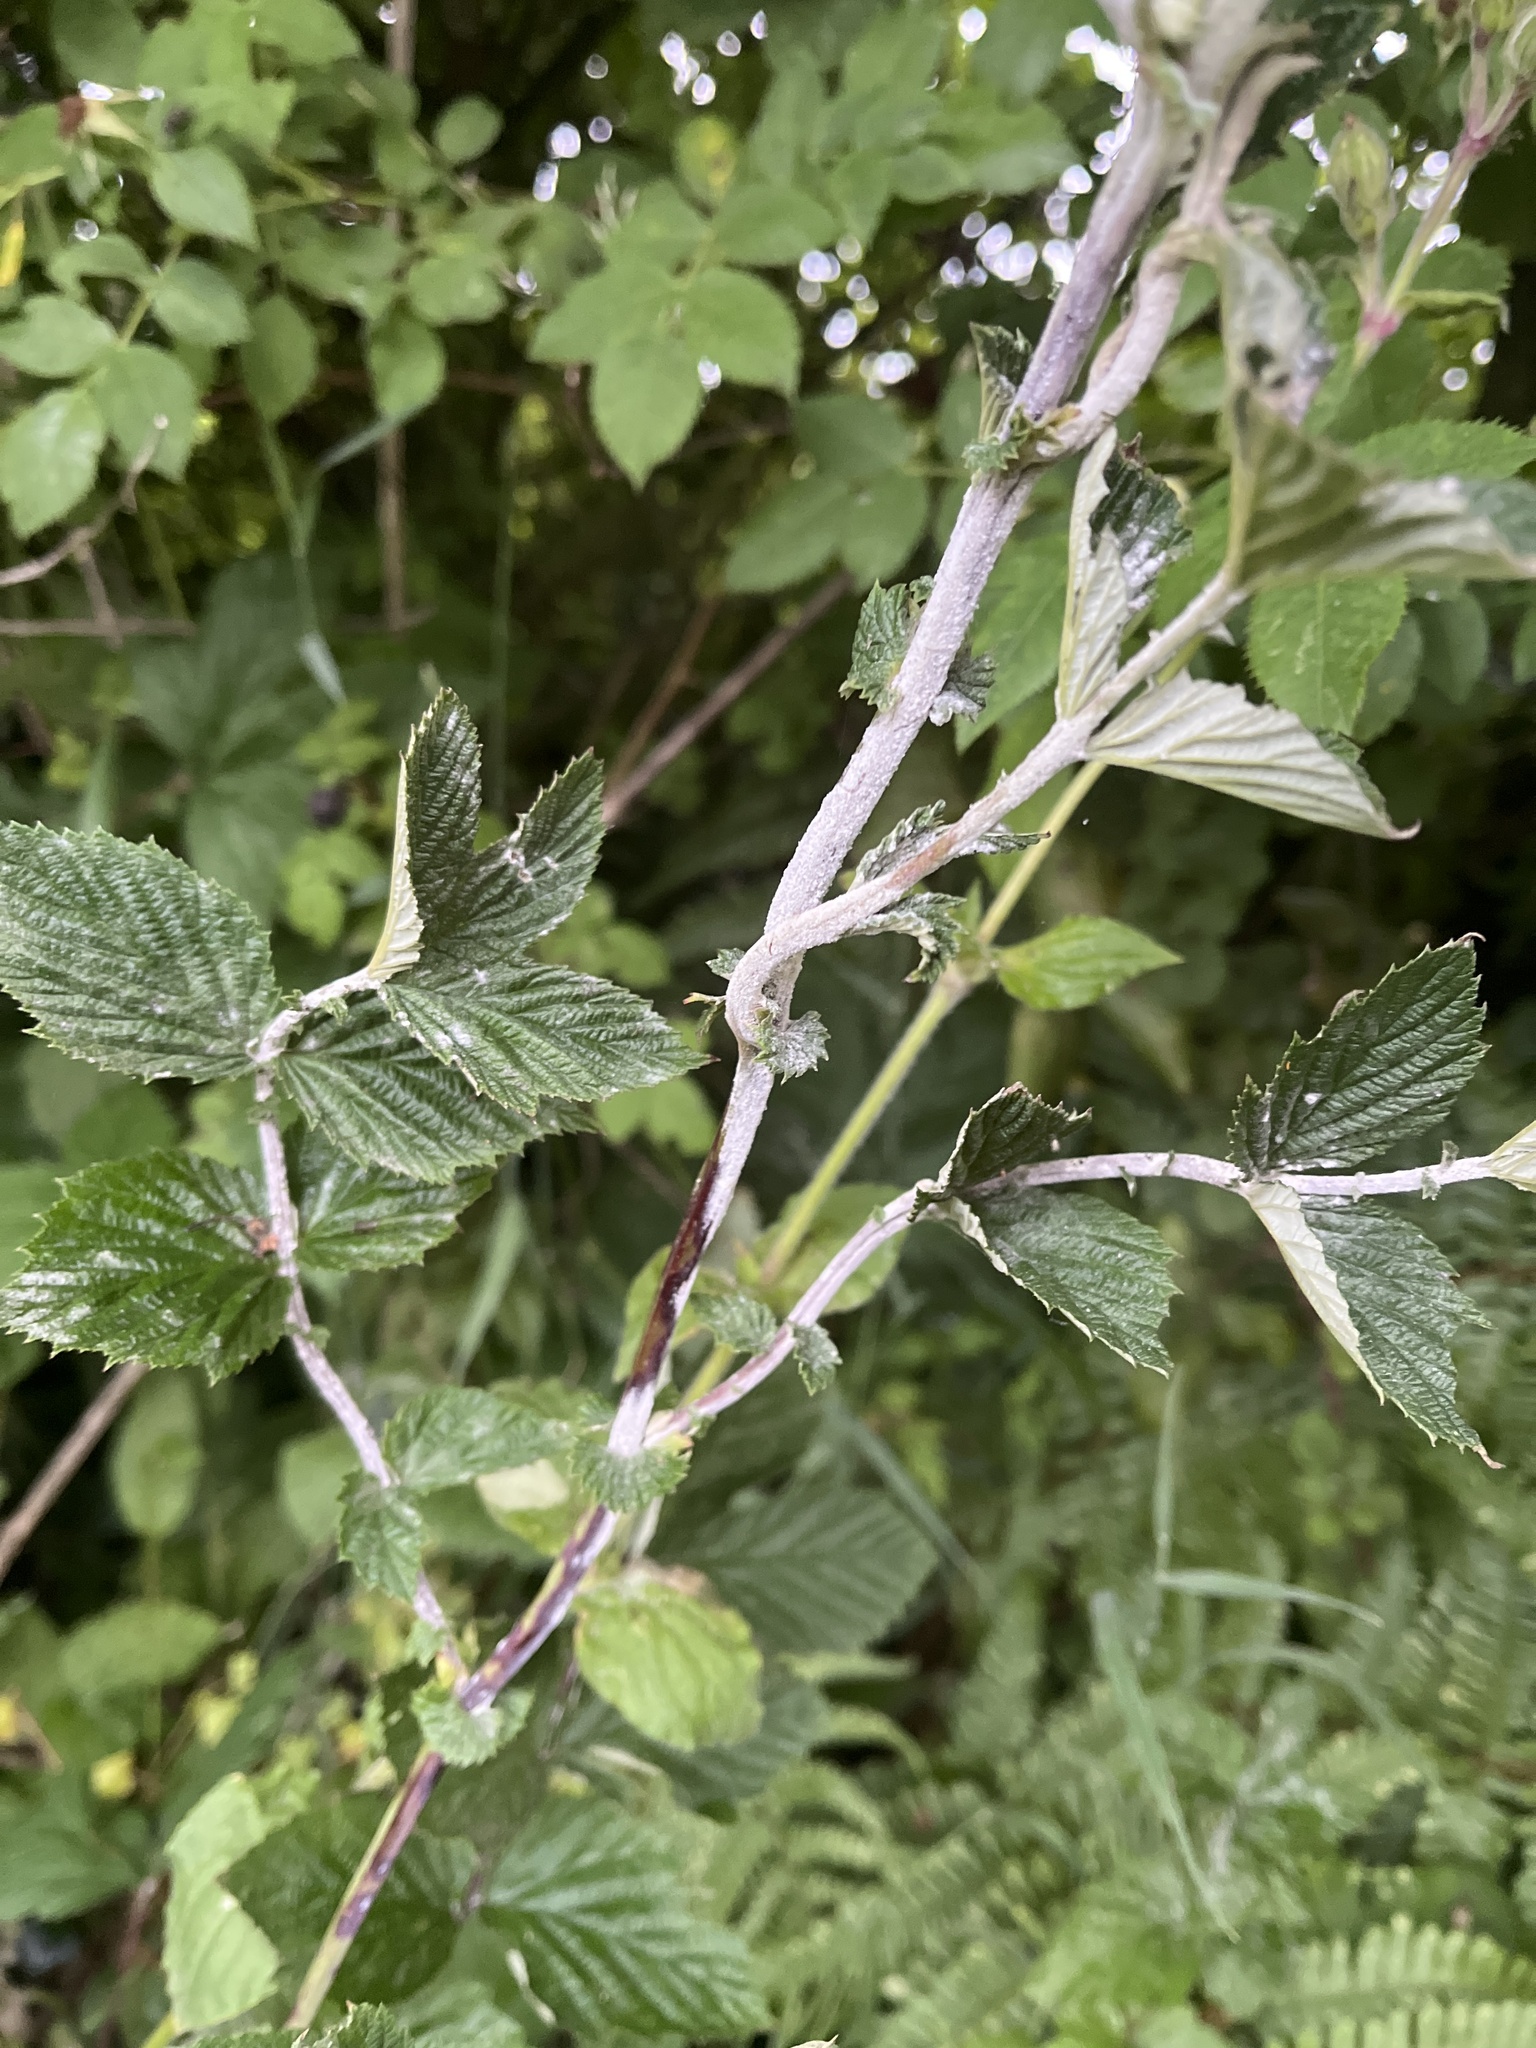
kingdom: Fungi
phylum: Ascomycota
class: Leotiomycetes
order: Helotiales
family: Erysiphaceae
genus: Podosphaera
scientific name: Podosphaera filipendulae
